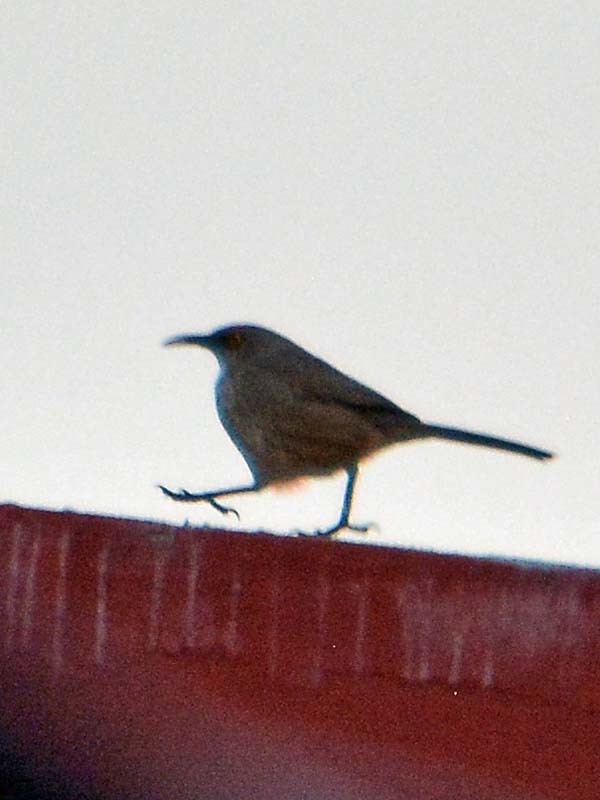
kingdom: Animalia
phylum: Chordata
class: Aves
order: Passeriformes
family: Mimidae
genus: Toxostoma
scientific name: Toxostoma curvirostre
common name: Curve-billed thrasher
